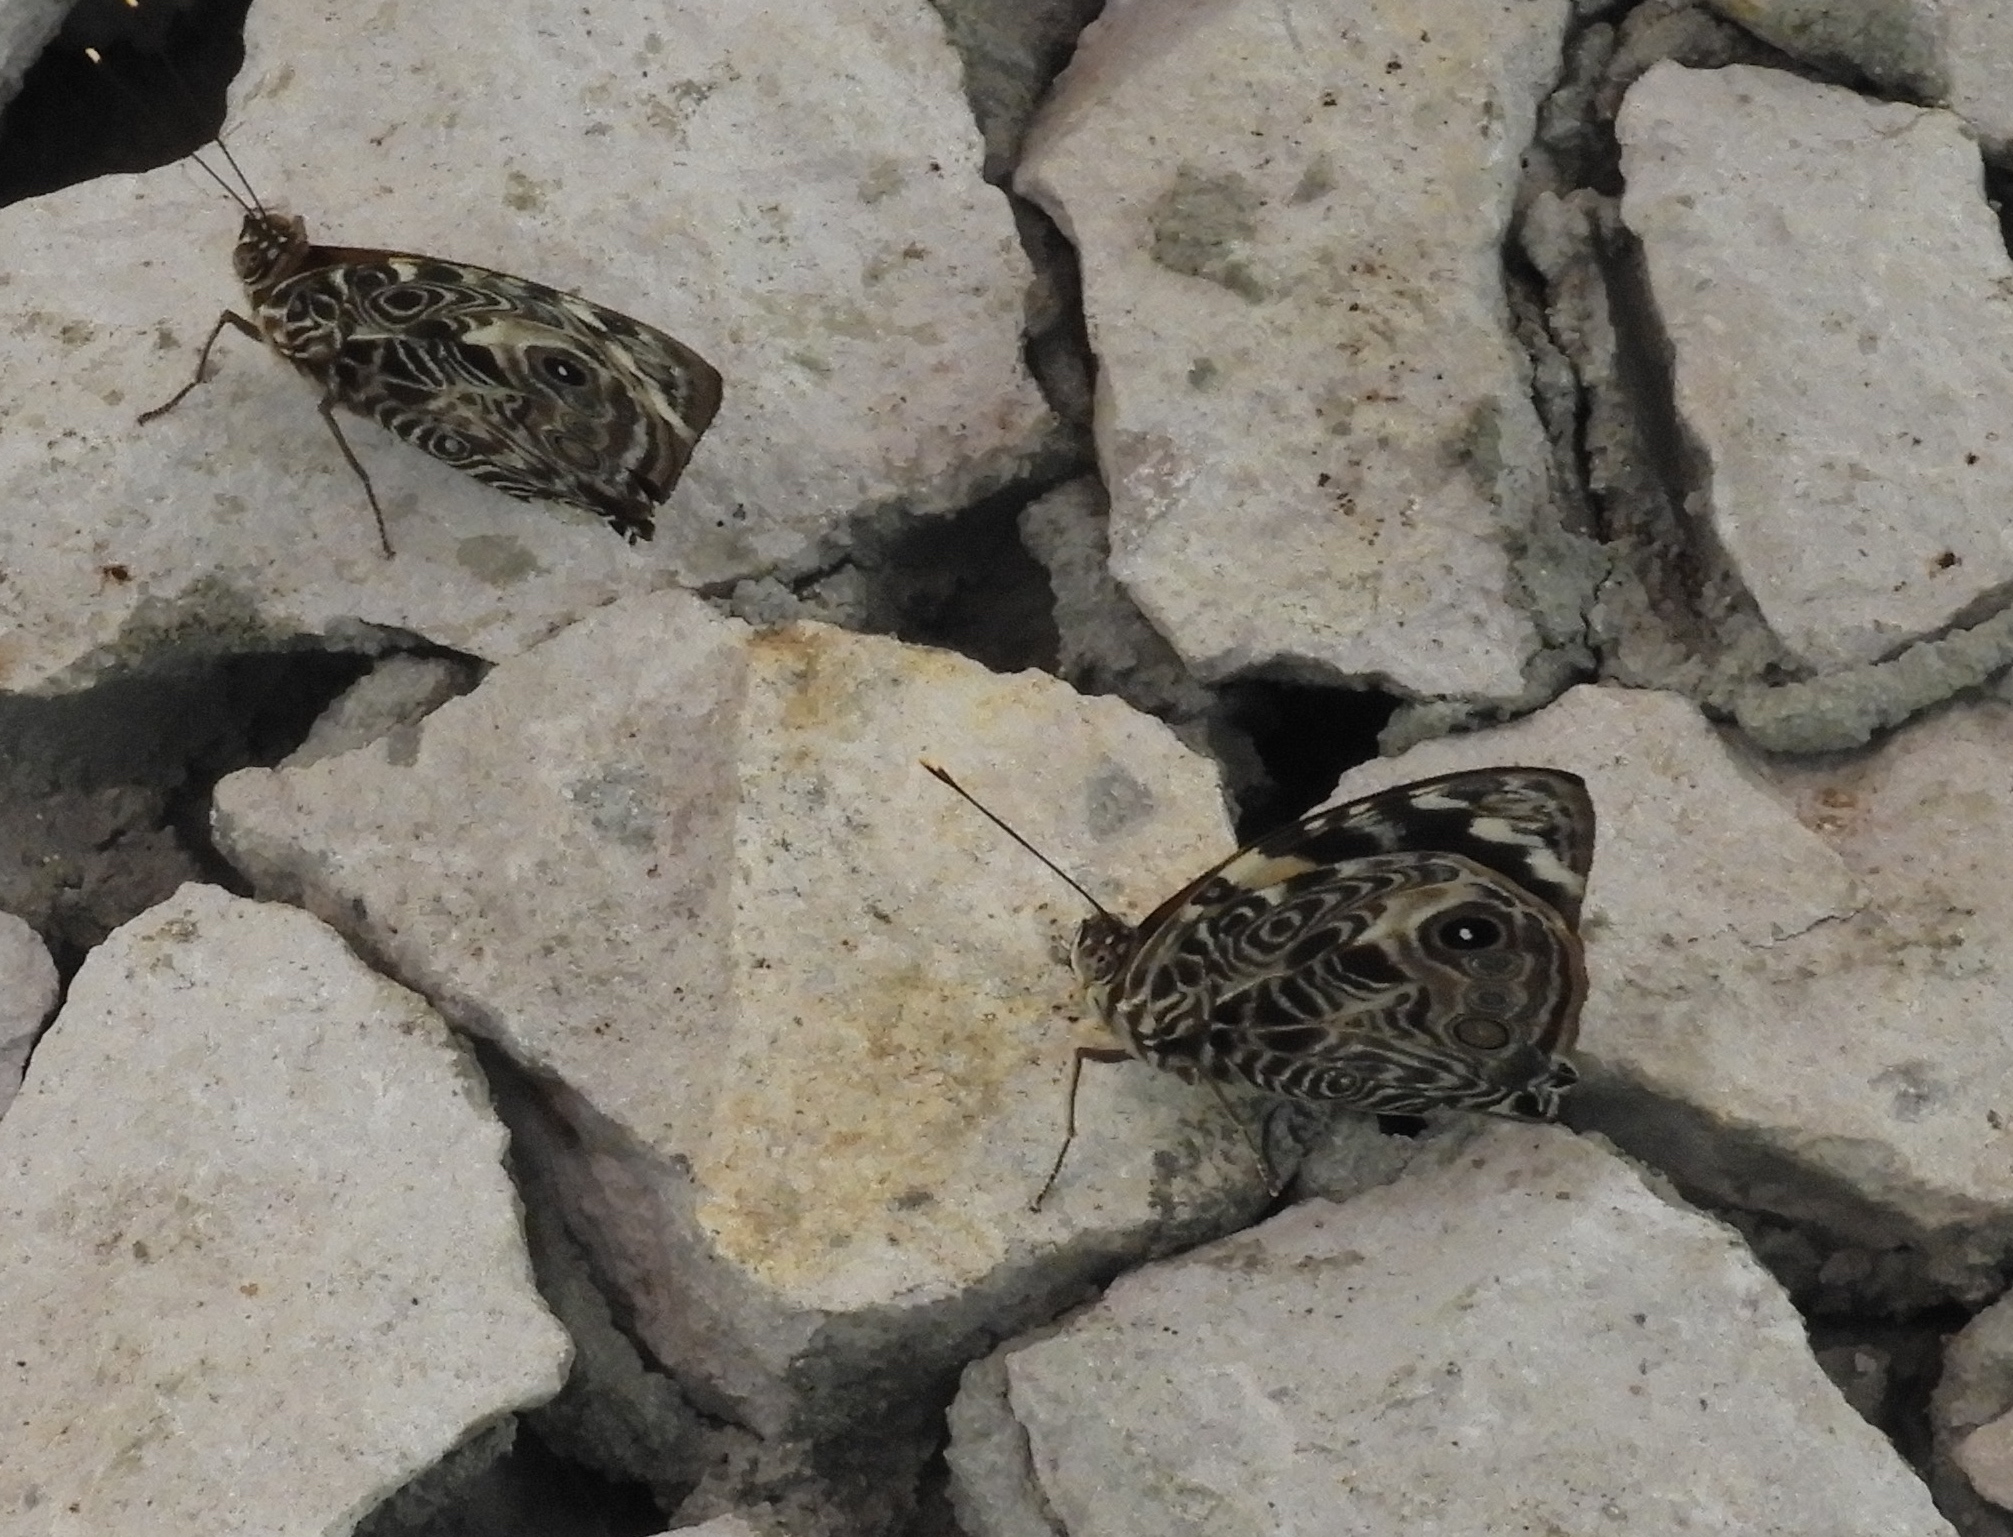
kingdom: Animalia
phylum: Arthropoda
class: Insecta
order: Lepidoptera
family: Nymphalidae
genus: Smyrna
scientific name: Smyrna blomfildia
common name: Blomfild's beauty
